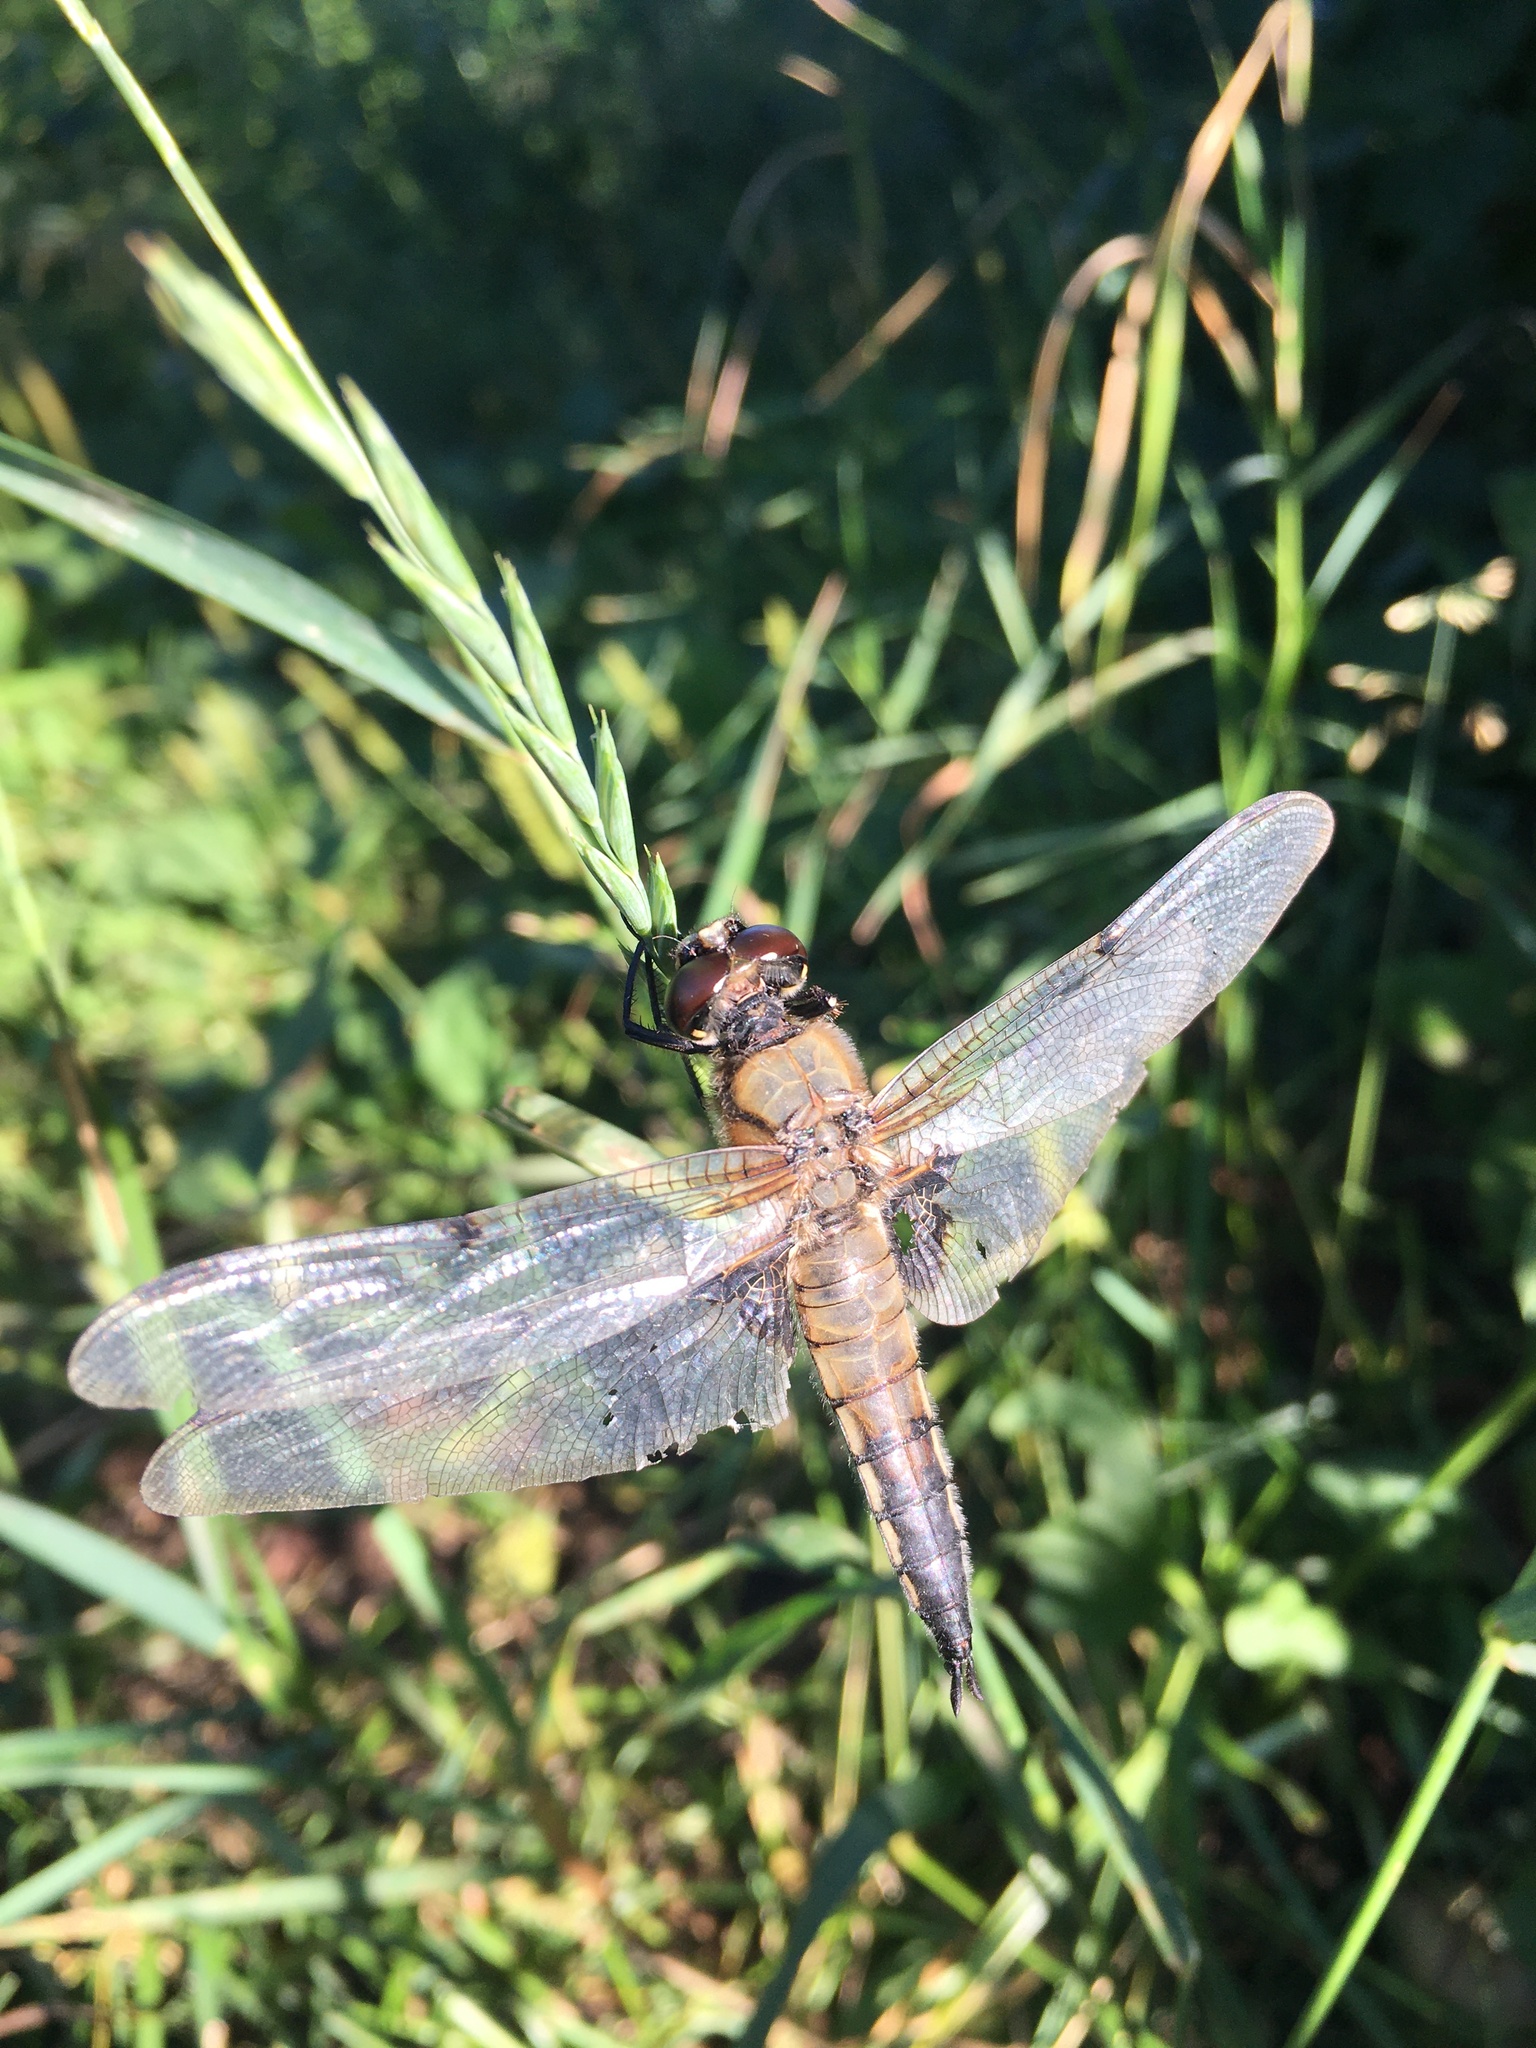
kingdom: Animalia
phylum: Arthropoda
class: Insecta
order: Odonata
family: Libellulidae
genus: Libellula
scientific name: Libellula quadrimaculata
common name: Four-spotted chaser
